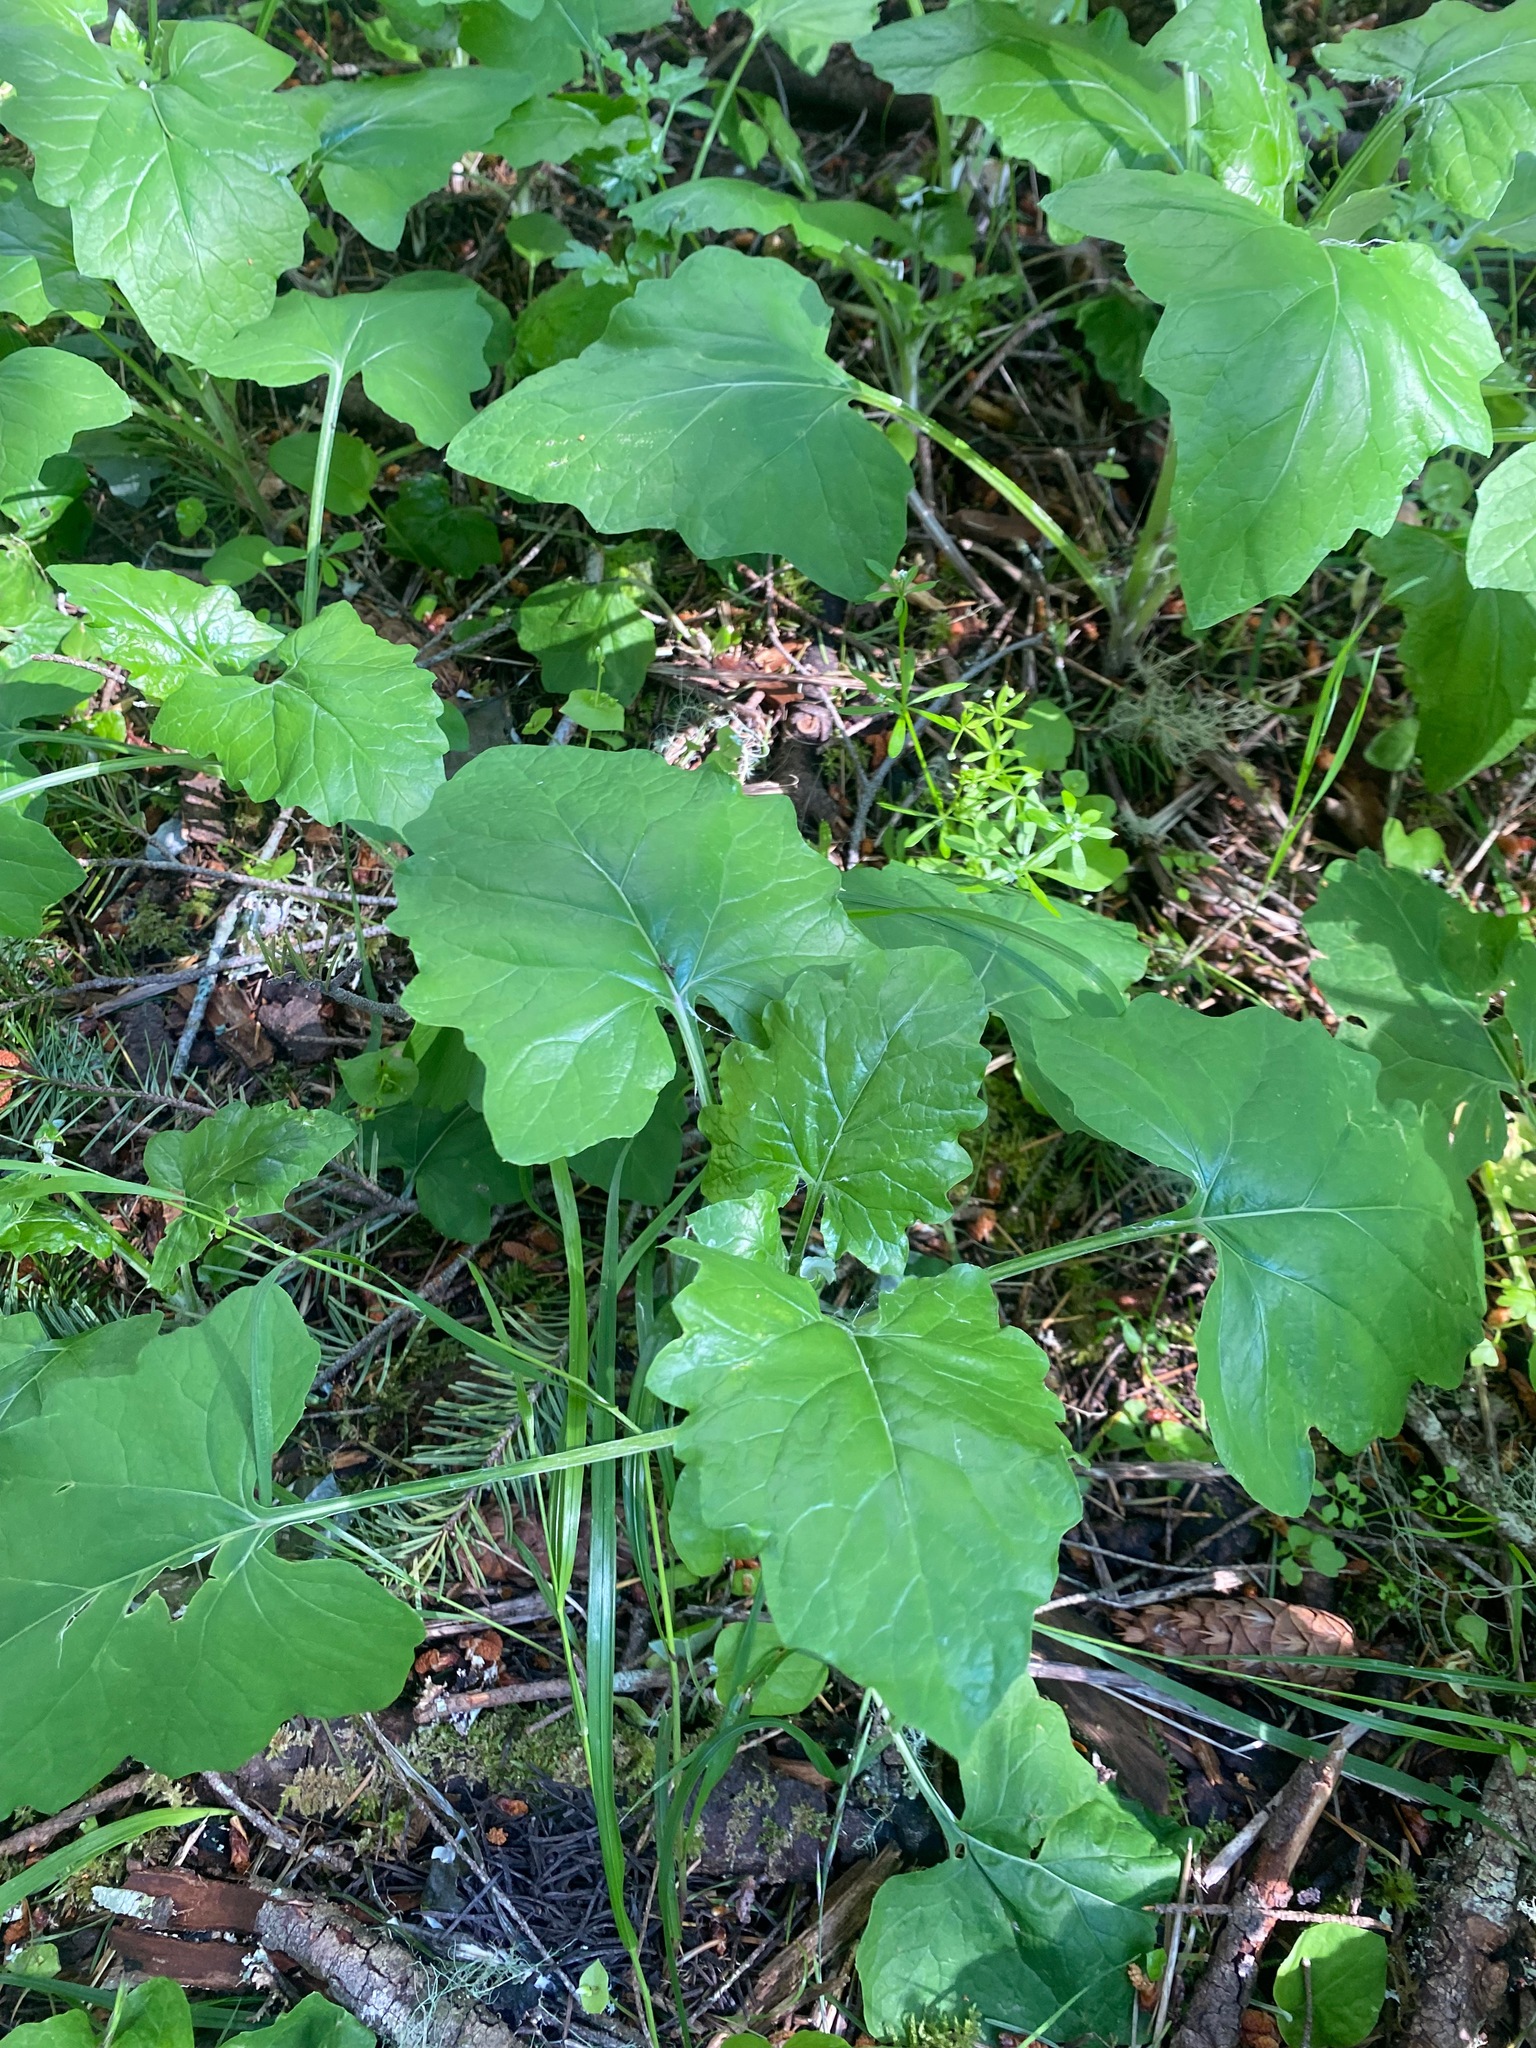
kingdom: Plantae
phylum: Tracheophyta
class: Magnoliopsida
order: Asterales
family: Asteraceae
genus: Adenocaulon
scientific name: Adenocaulon bicolor
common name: Trailplant
